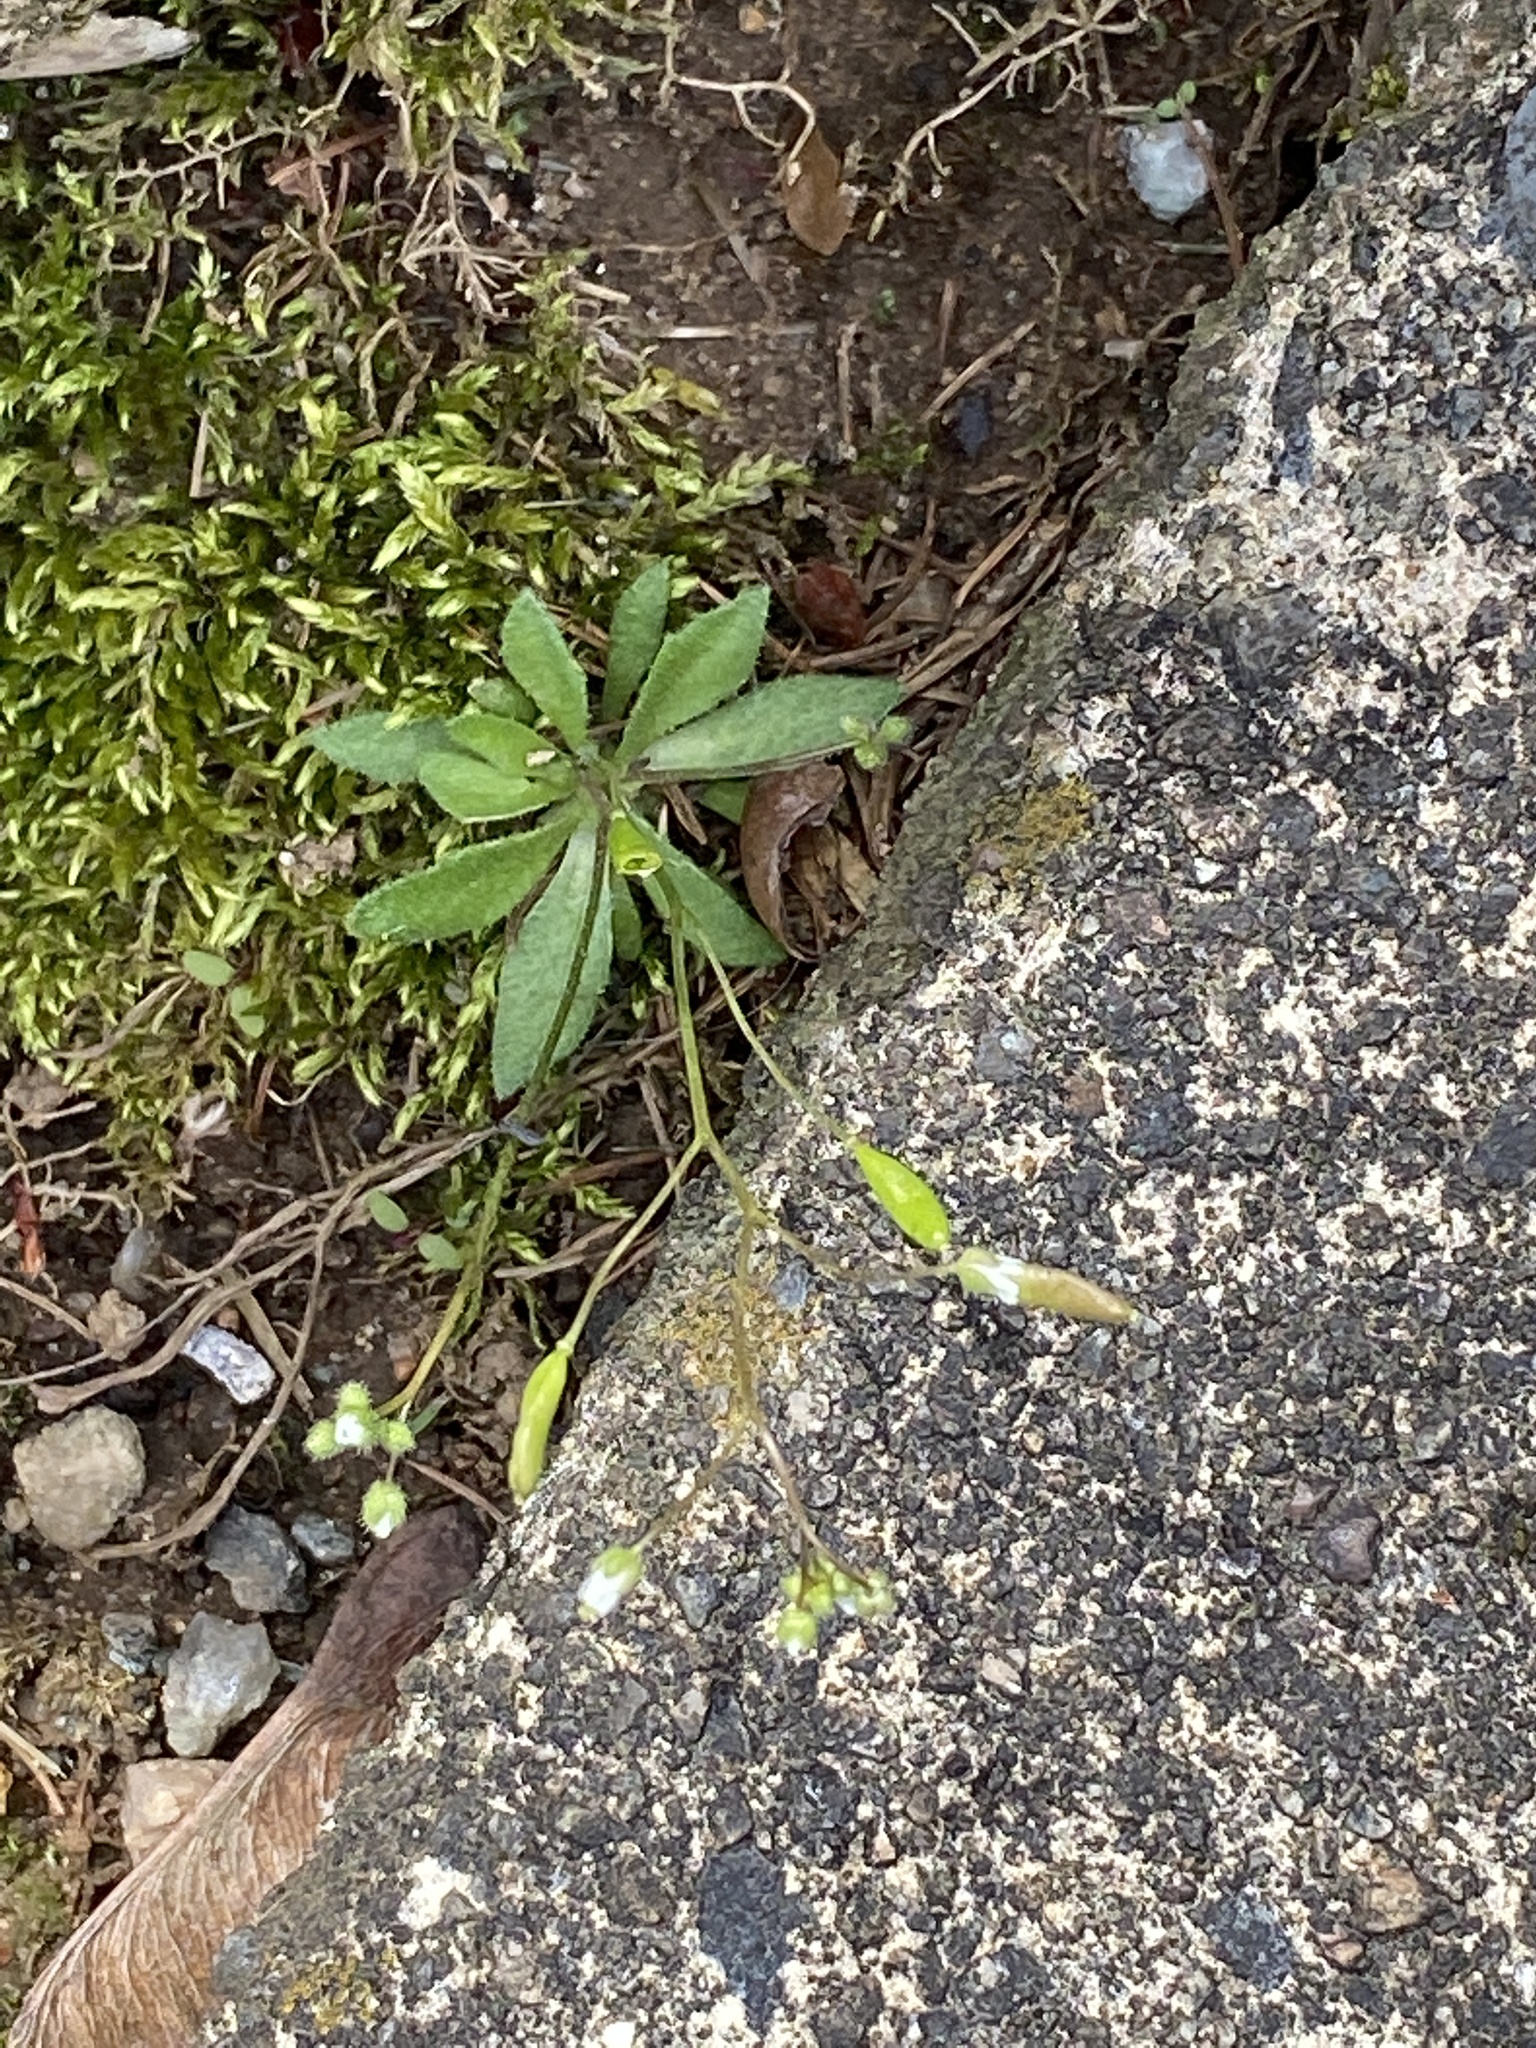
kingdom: Plantae
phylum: Tracheophyta
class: Magnoliopsida
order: Brassicales
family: Brassicaceae
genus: Draba
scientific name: Draba verna
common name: Spring draba
